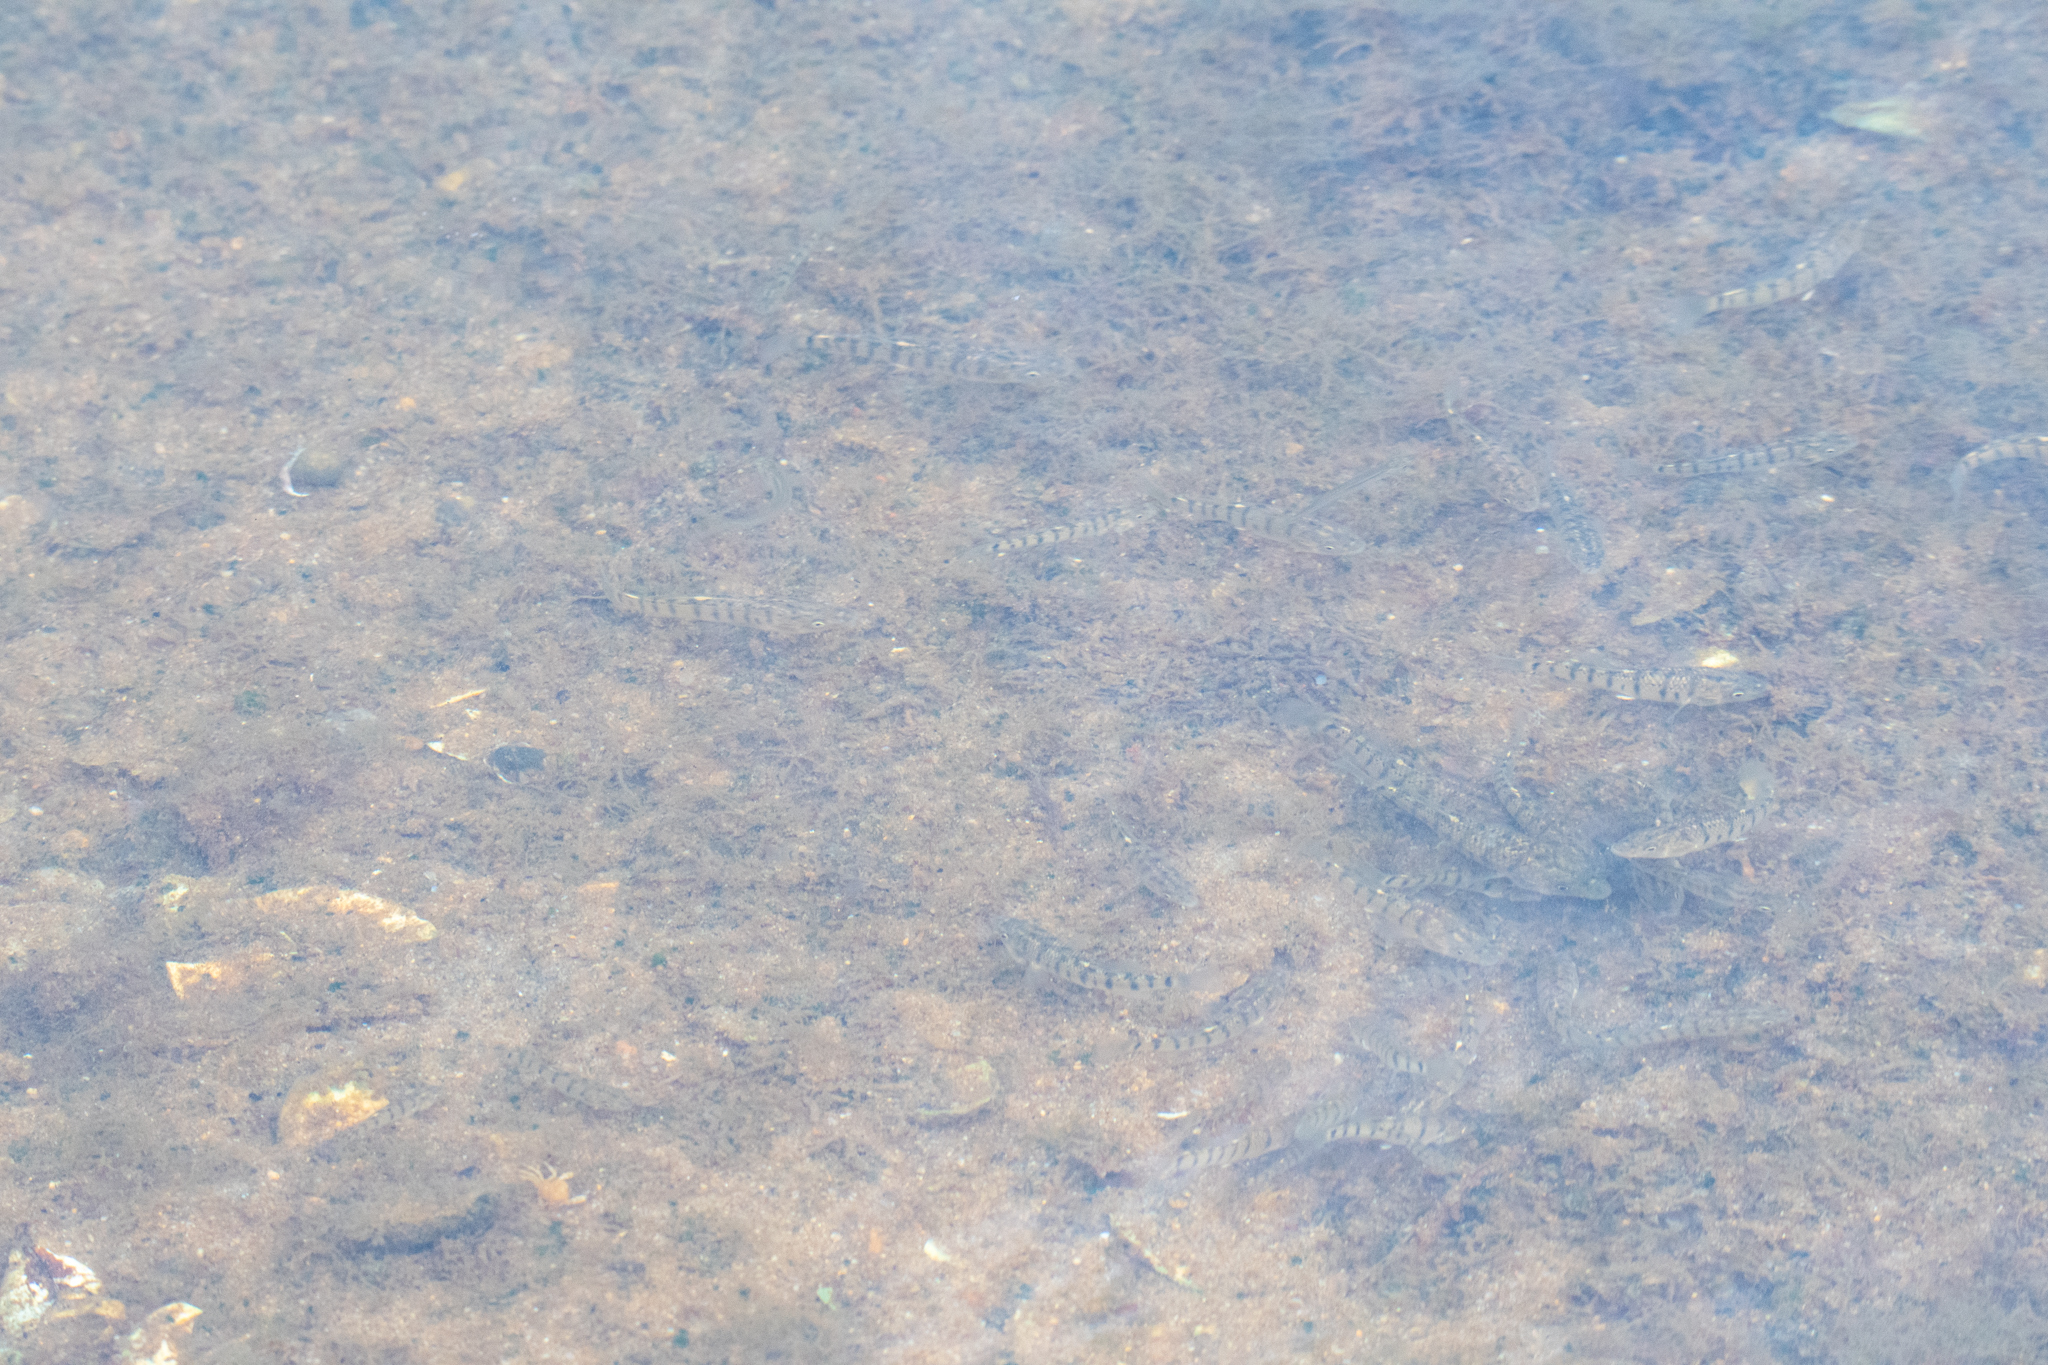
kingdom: Animalia
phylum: Chordata
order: Cyprinodontiformes
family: Fundulidae
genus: Fundulus
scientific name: Fundulus majalis
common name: Striped killifish
